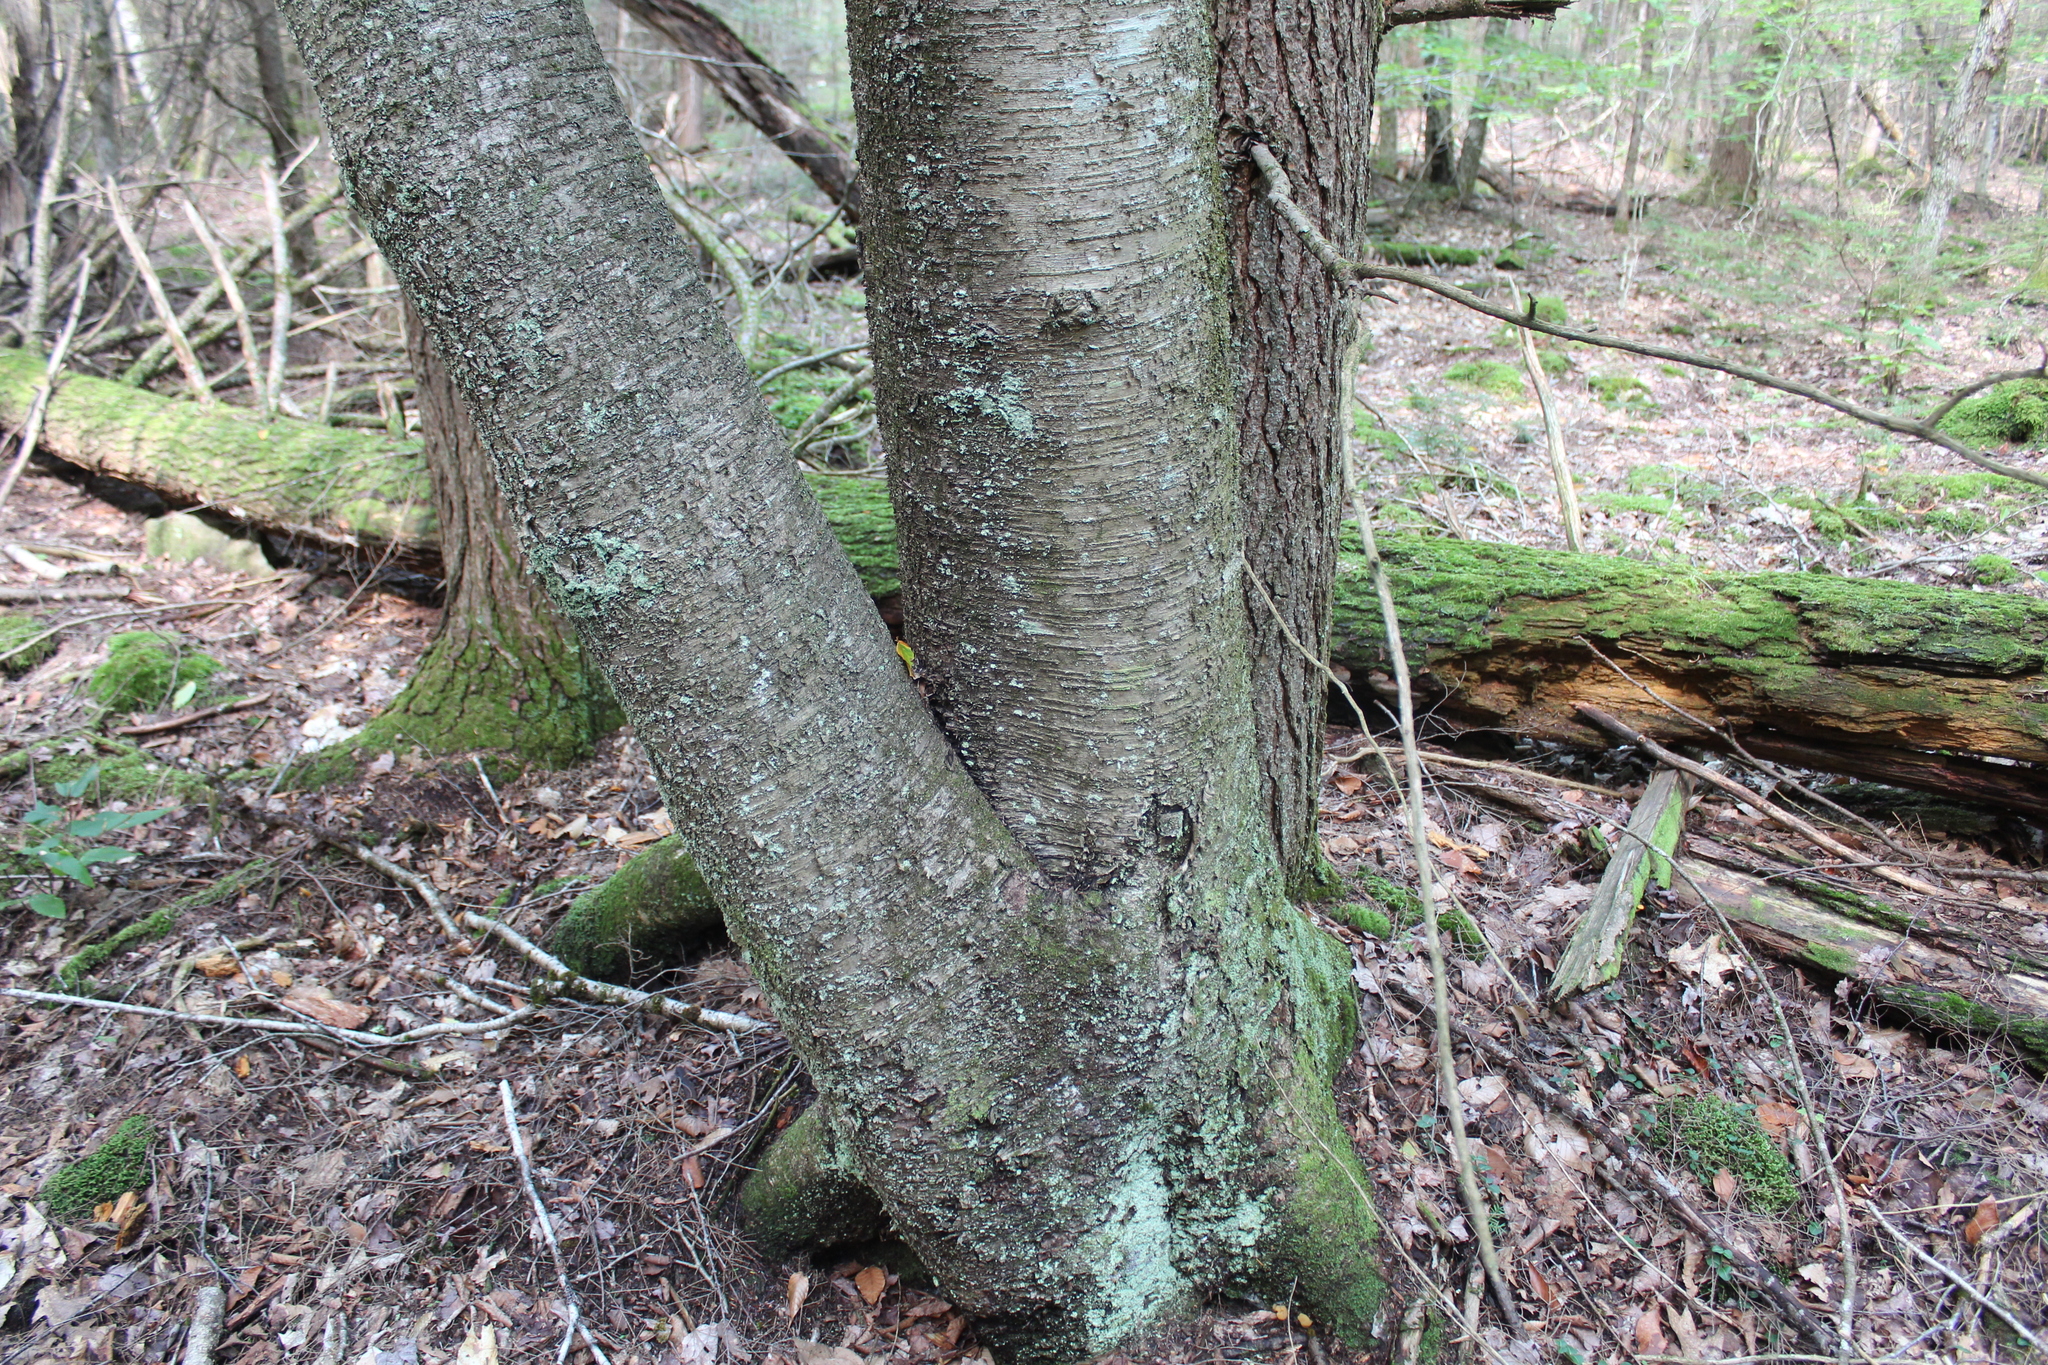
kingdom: Plantae
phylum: Tracheophyta
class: Magnoliopsida
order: Fagales
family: Betulaceae
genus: Betula
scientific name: Betula lenta
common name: Black birch
